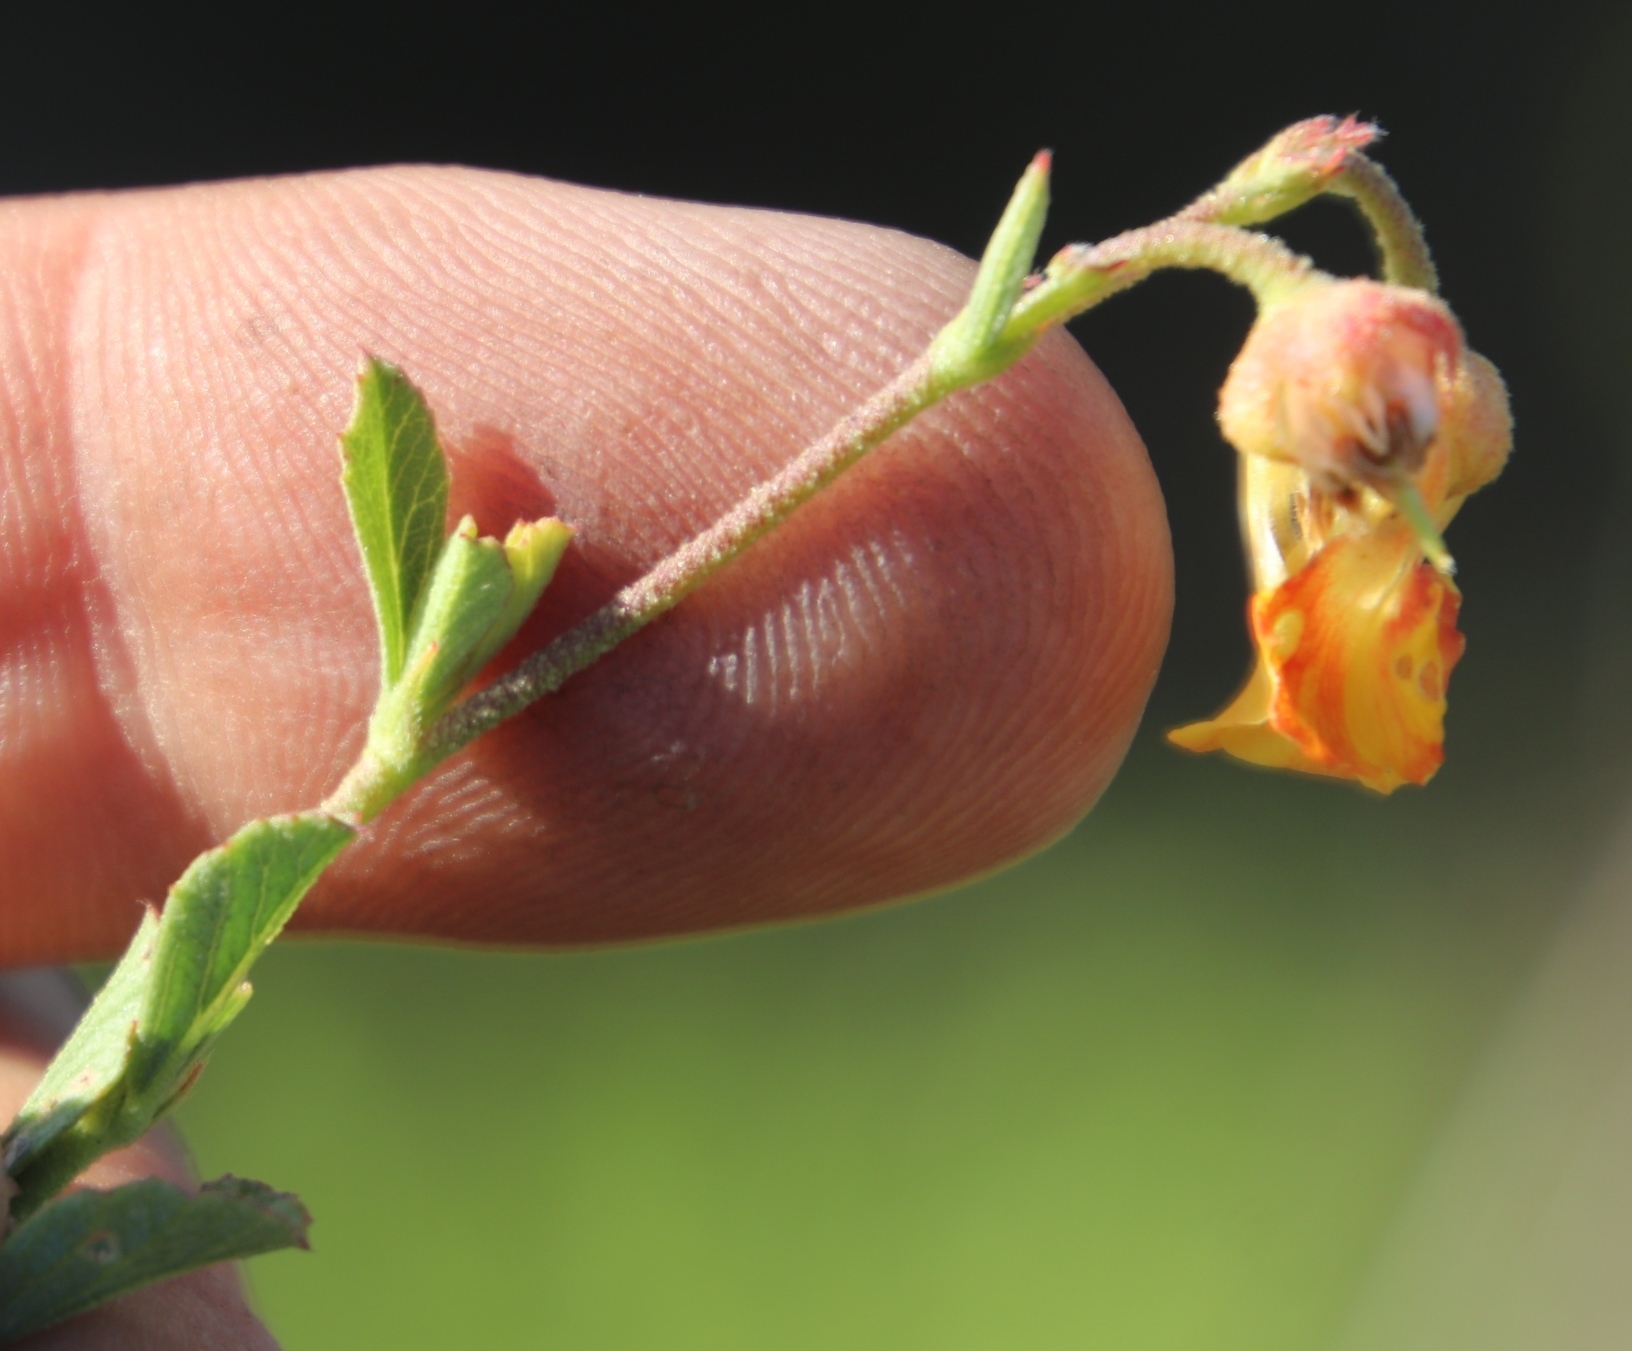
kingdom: Plantae
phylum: Tracheophyta
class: Magnoliopsida
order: Malvales
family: Malvaceae
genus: Hermannia
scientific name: Hermannia multiflora
